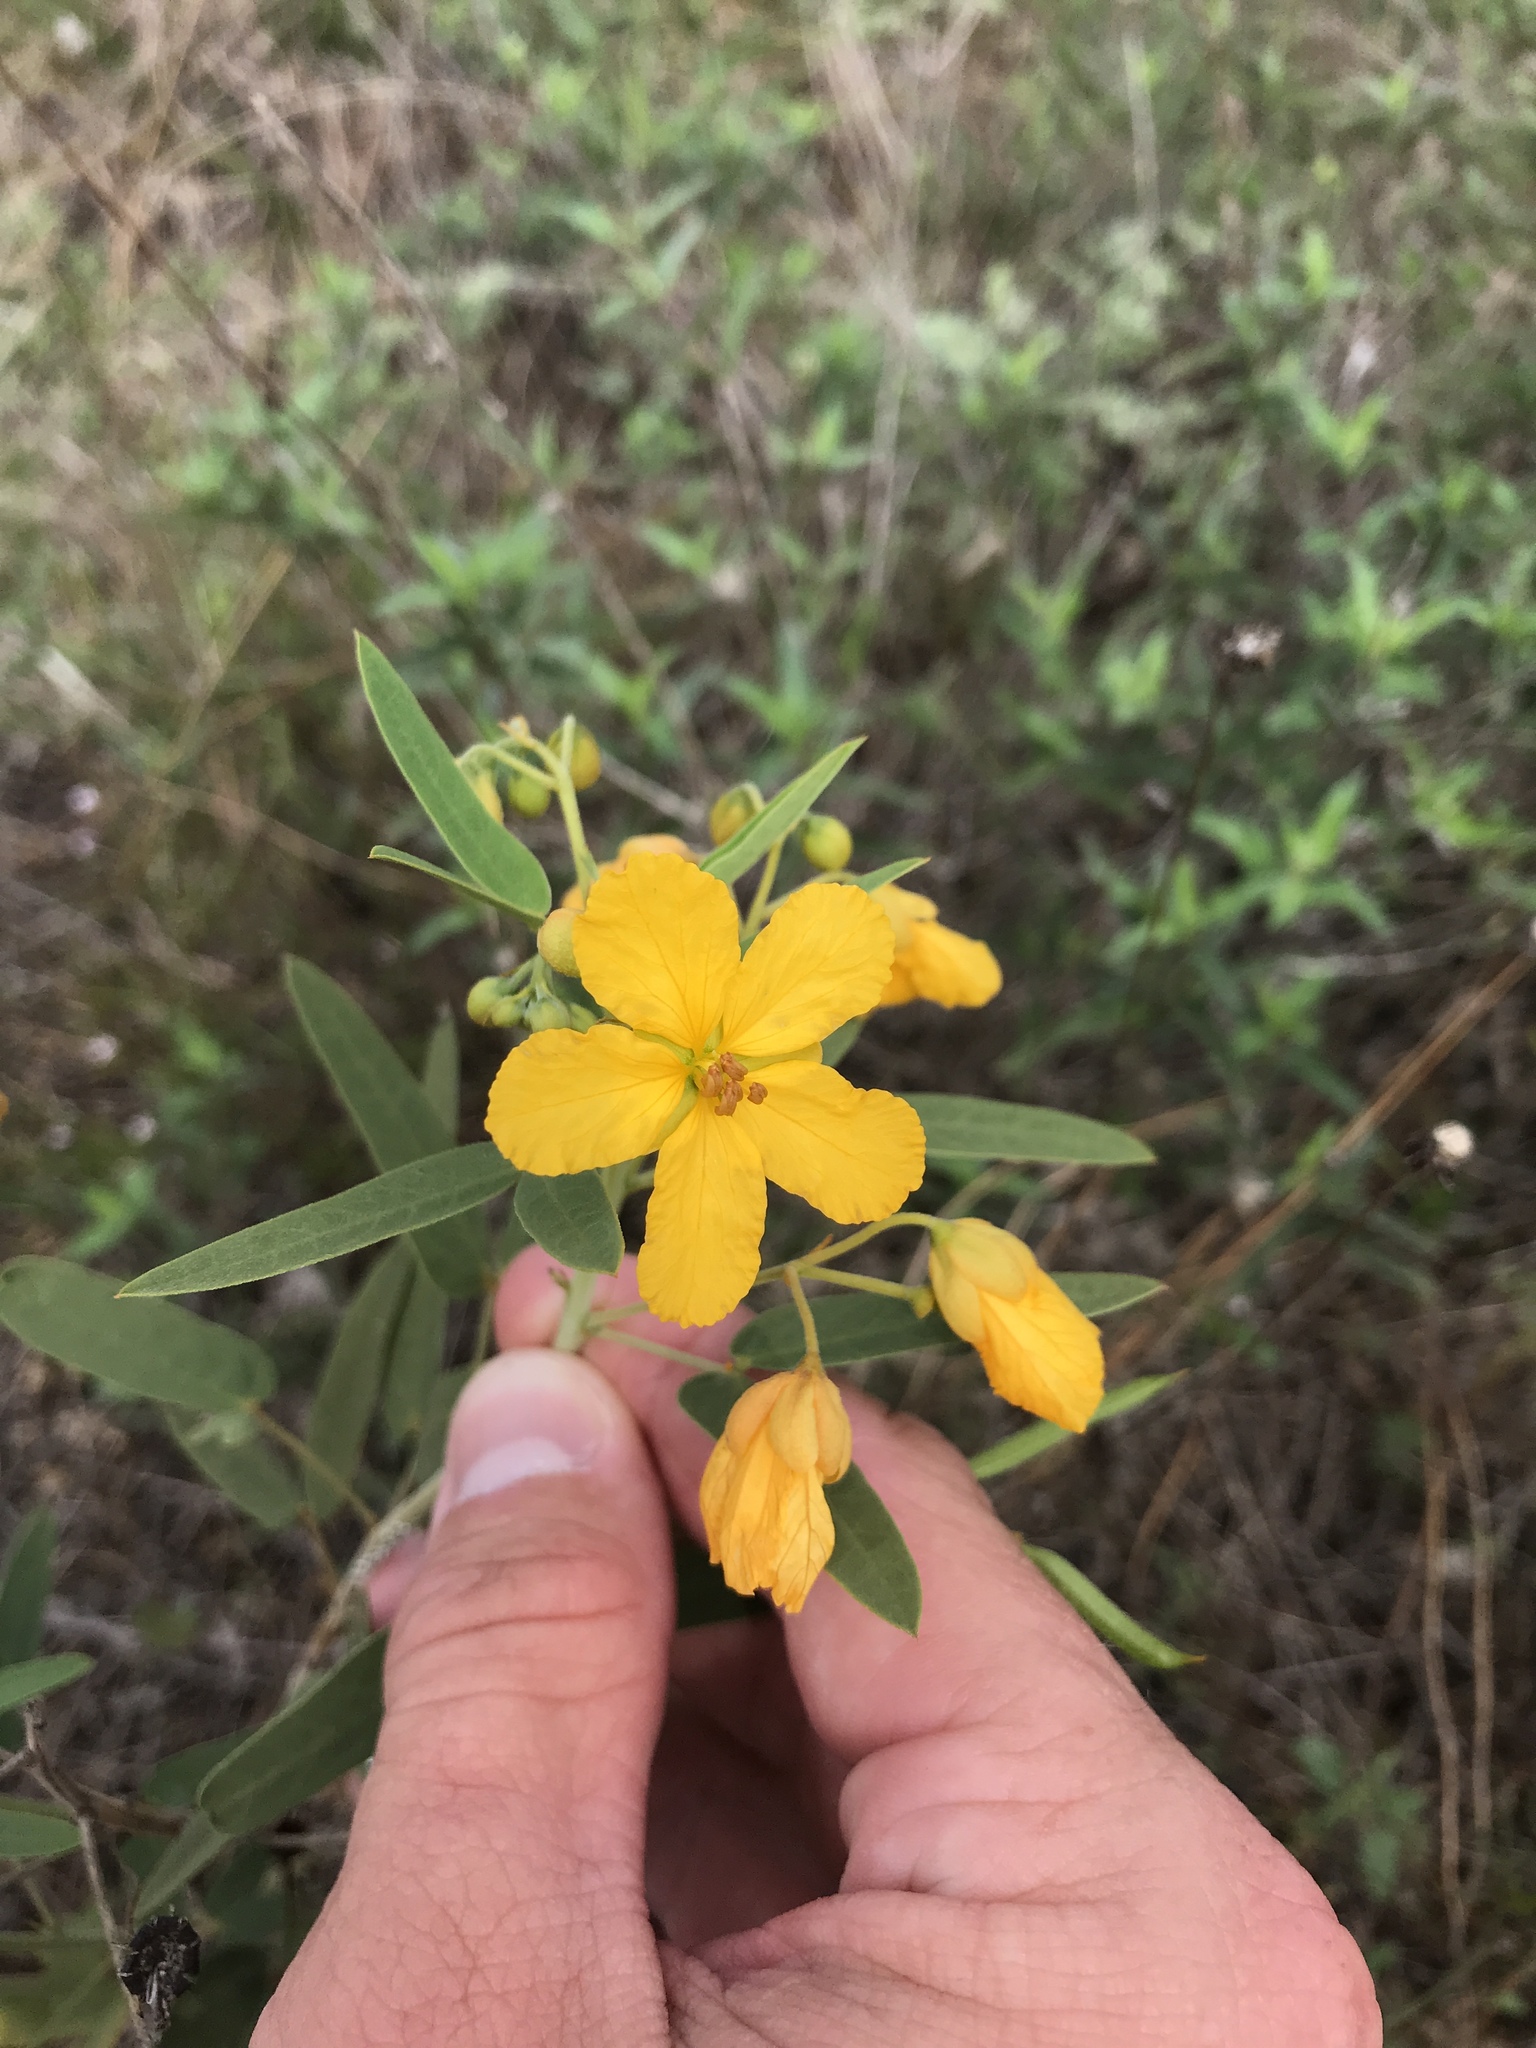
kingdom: Plantae
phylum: Tracheophyta
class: Magnoliopsida
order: Fabales
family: Fabaceae
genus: Senna
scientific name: Senna roemeriana
